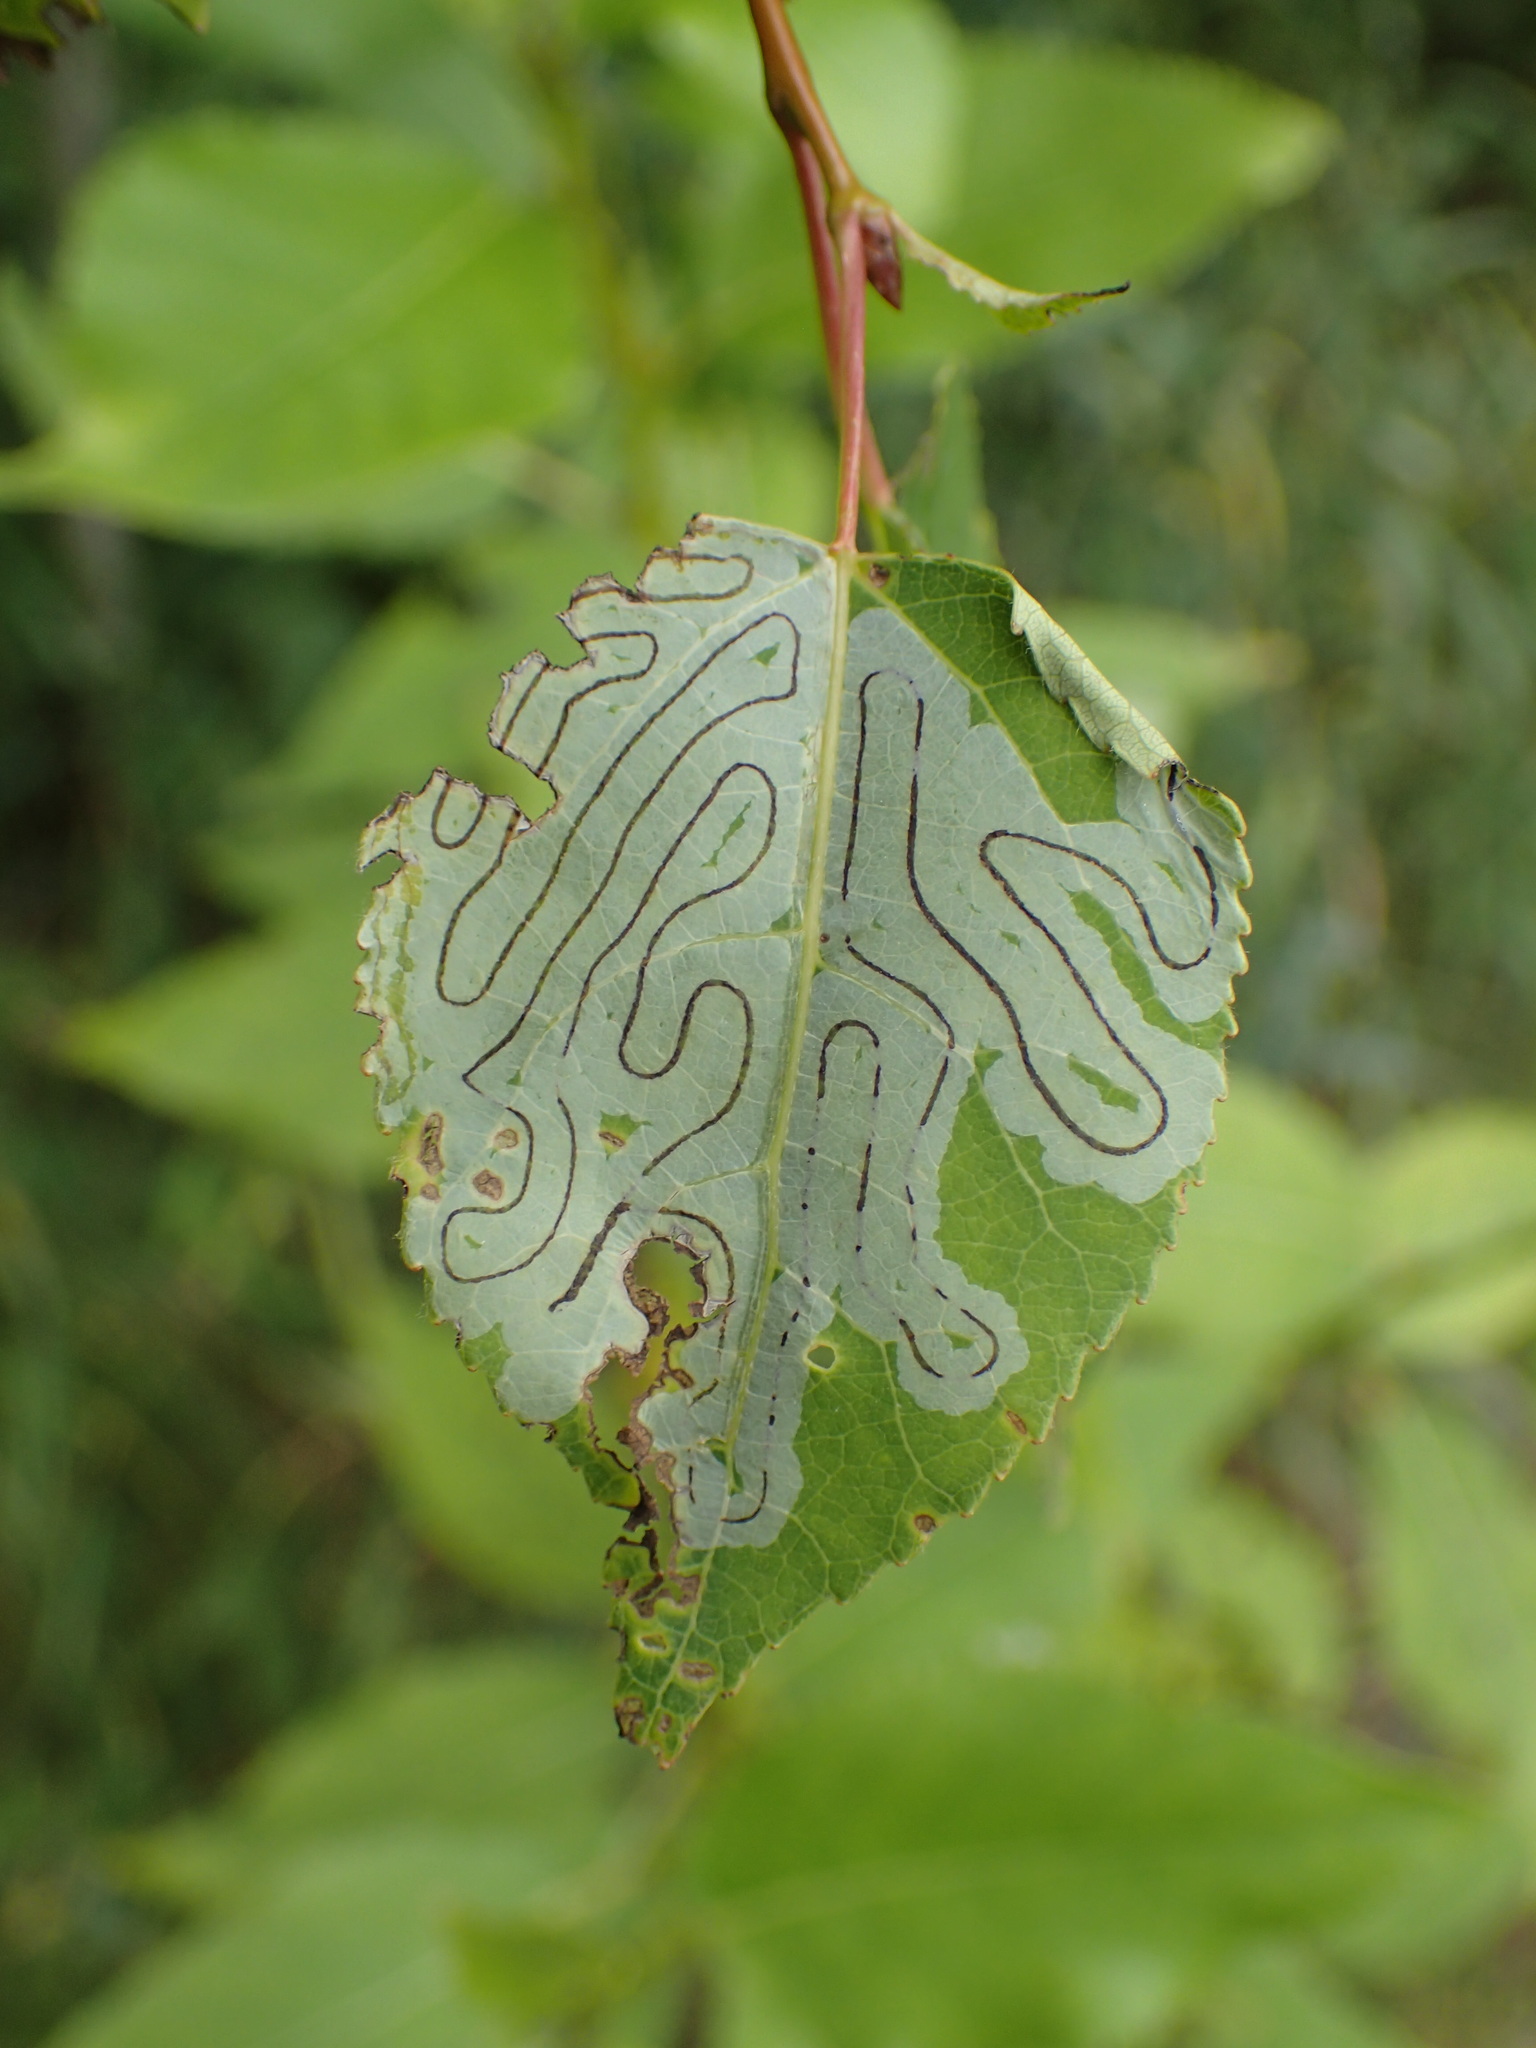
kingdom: Animalia
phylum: Arthropoda
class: Insecta
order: Lepidoptera
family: Gracillariidae
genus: Phyllocnistis
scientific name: Phyllocnistis populiella
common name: Aspen serpentine leafminer moth
